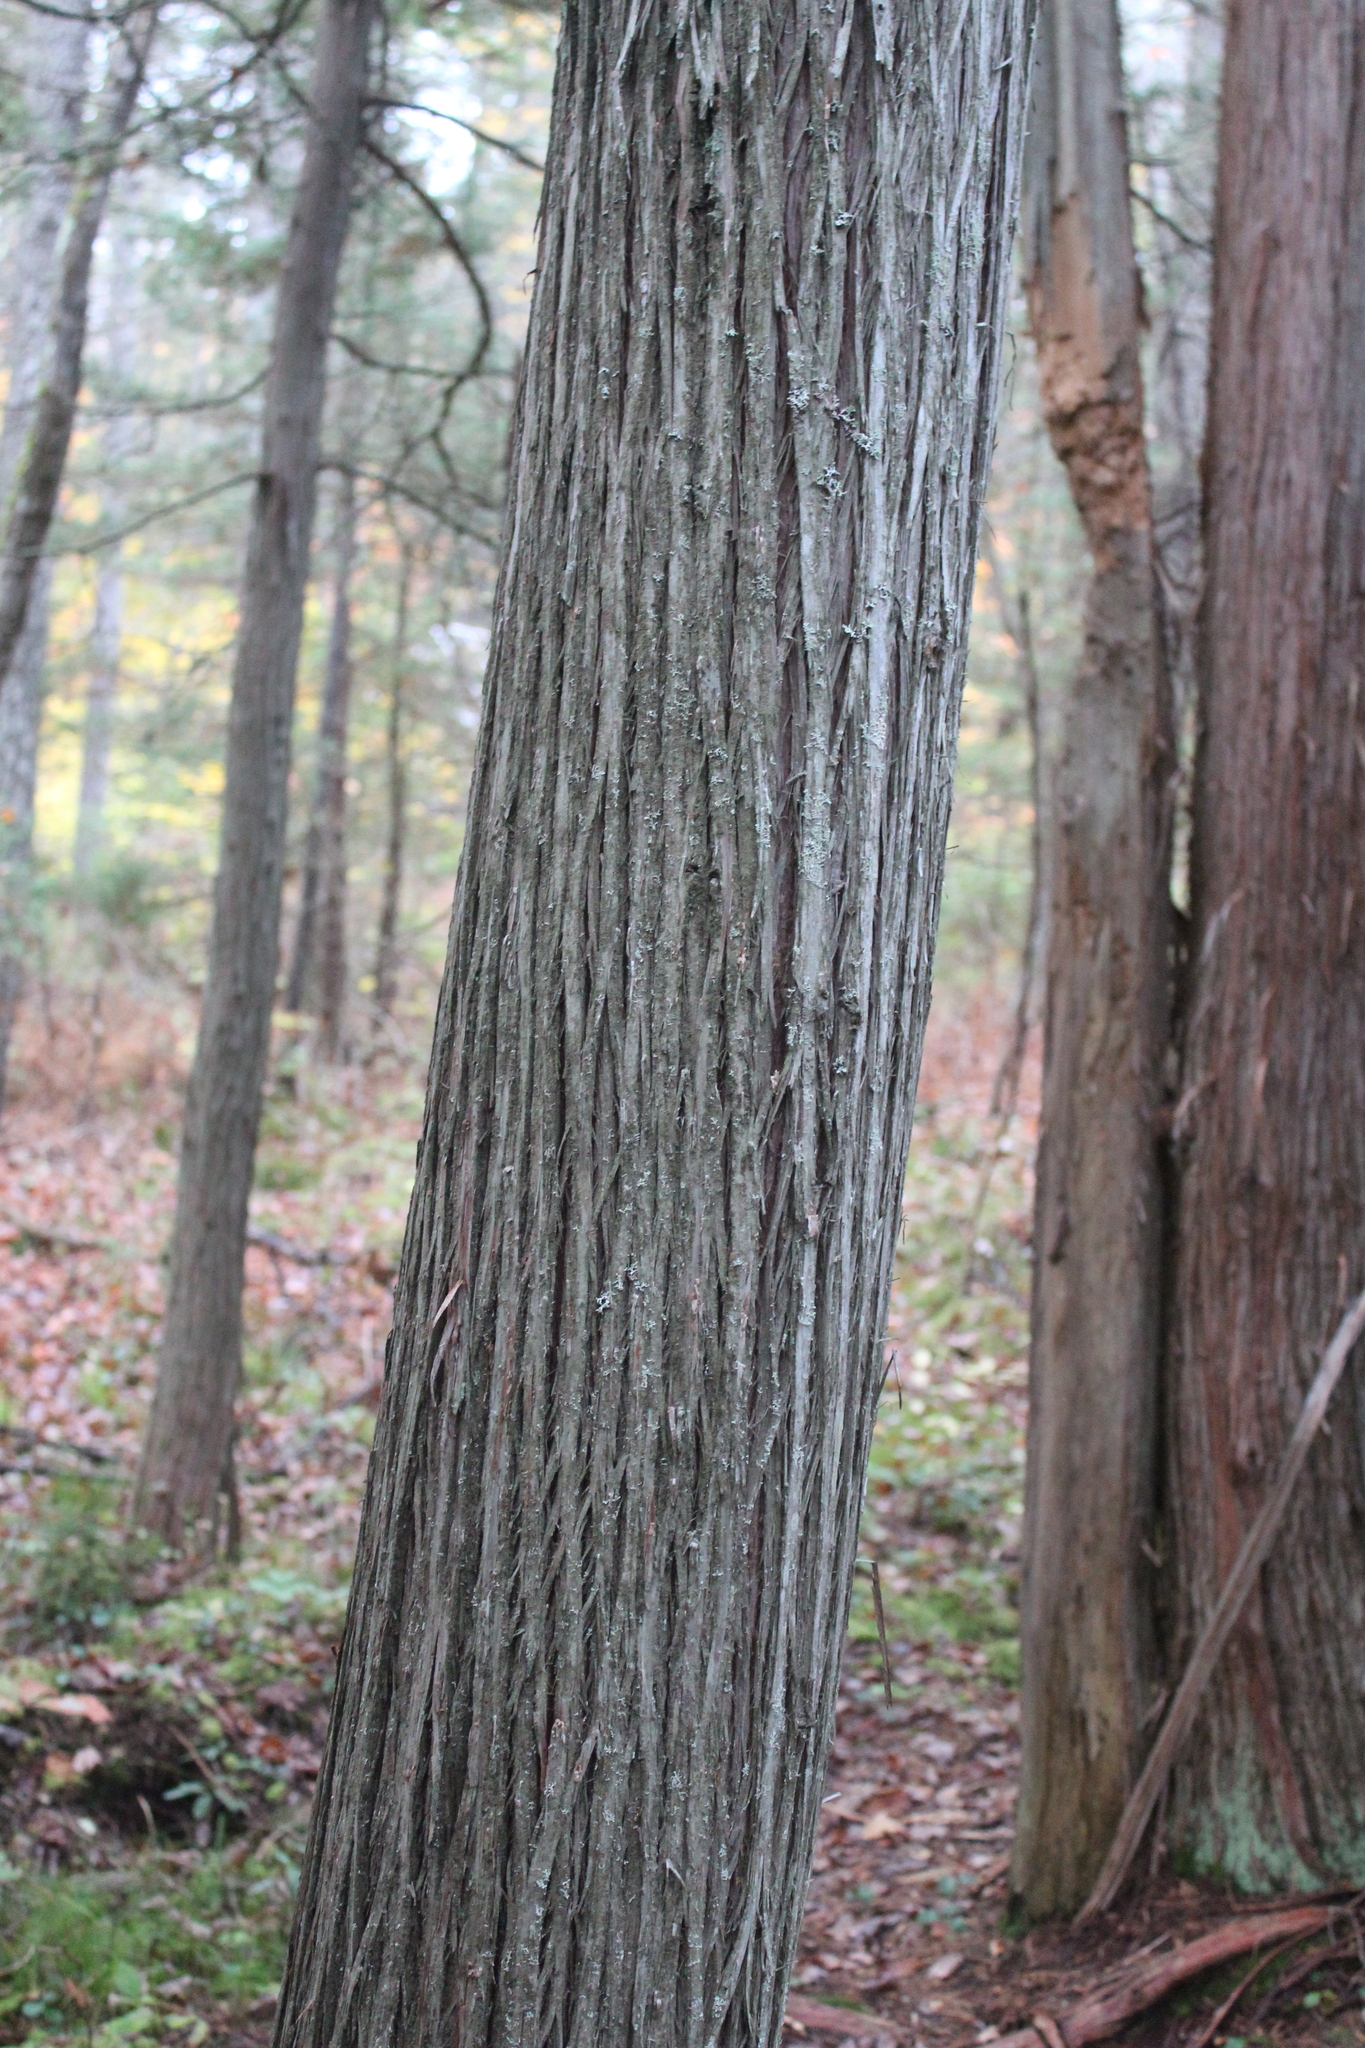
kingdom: Plantae
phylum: Tracheophyta
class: Pinopsida
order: Pinales
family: Cupressaceae
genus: Chamaecyparis
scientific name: Chamaecyparis thyoides
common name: Atlantic white cedar
